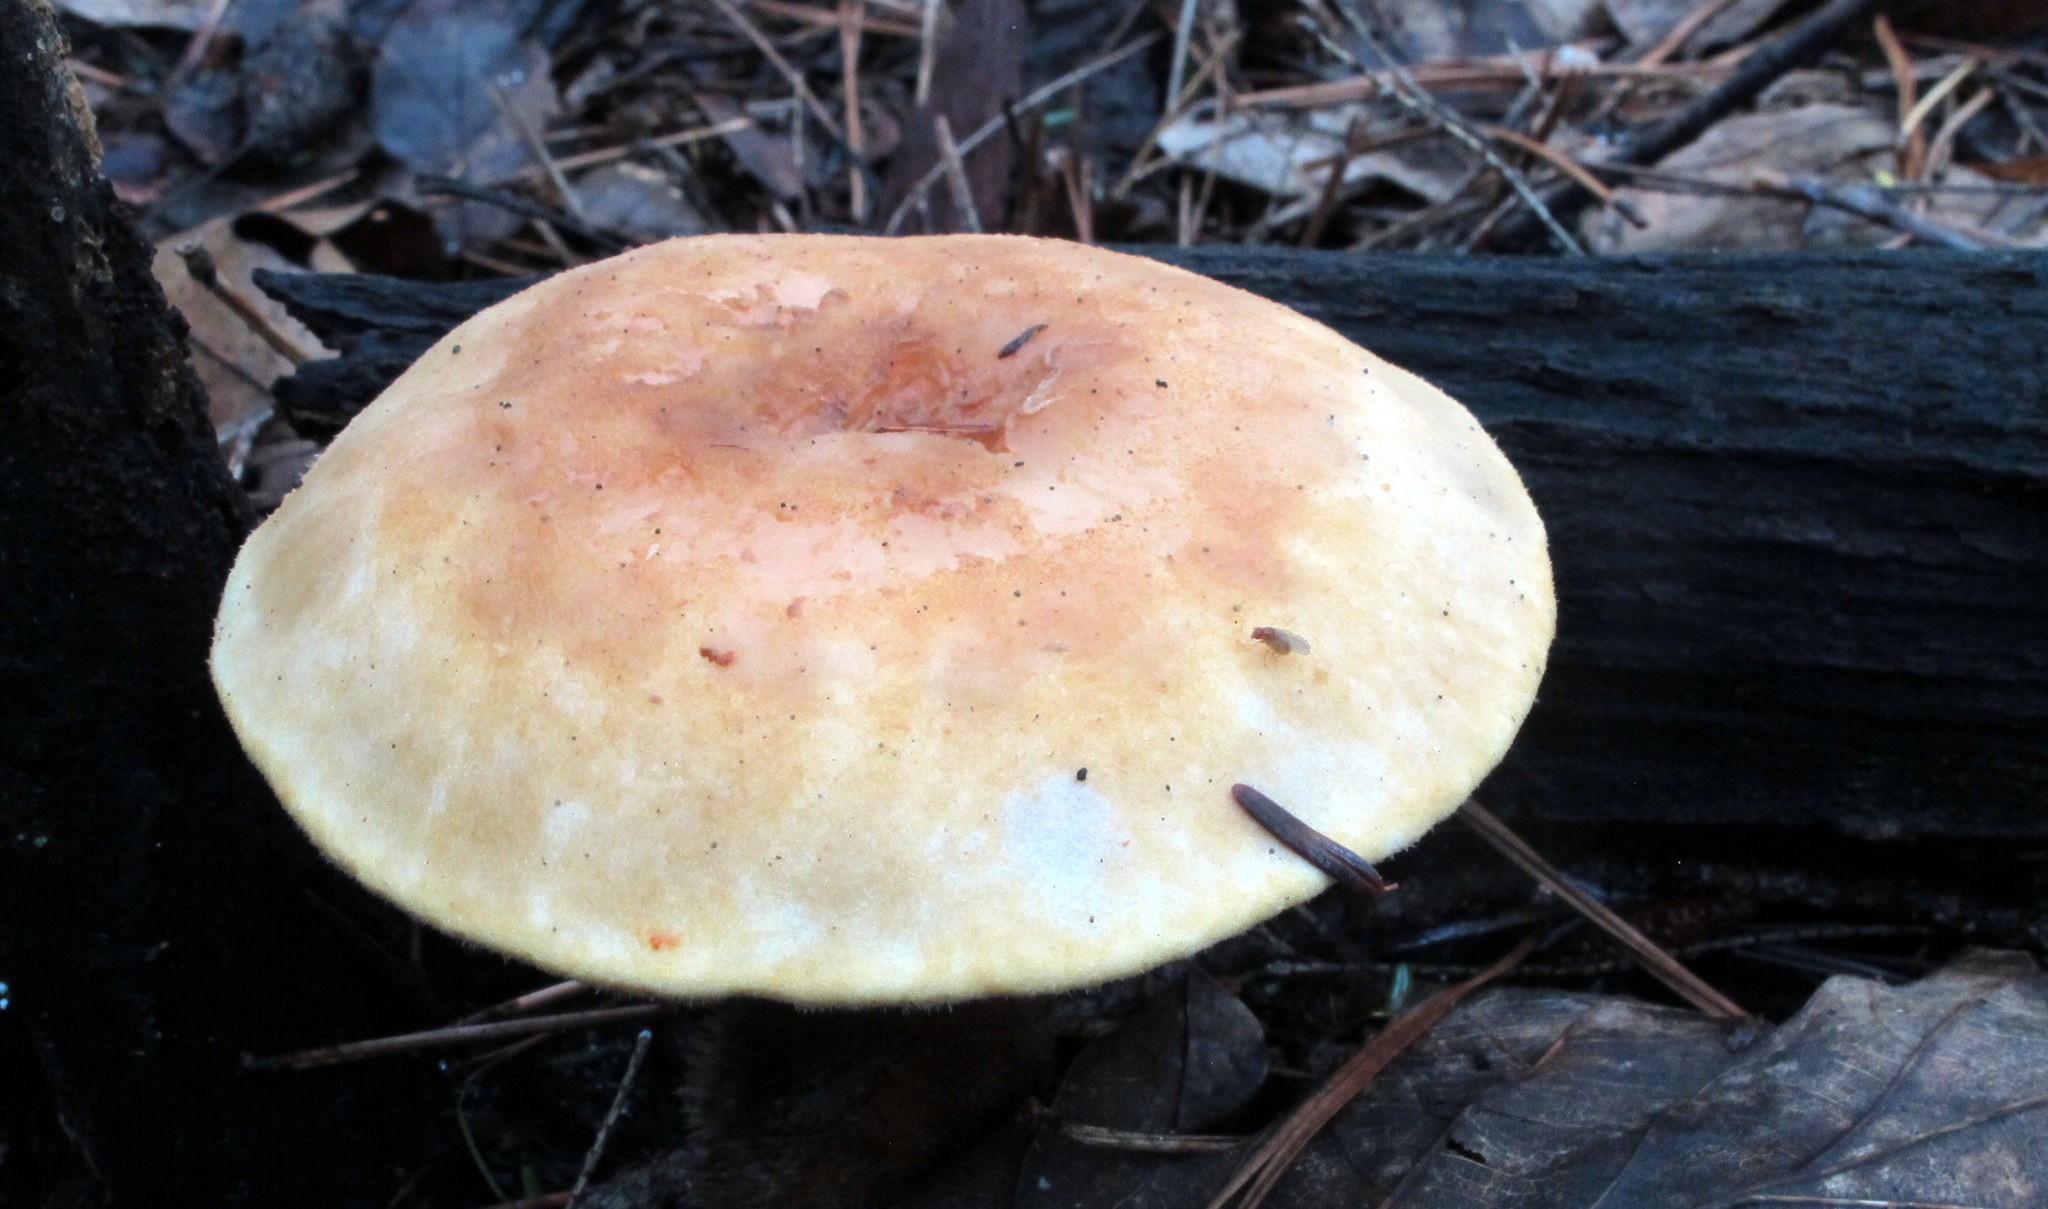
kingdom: Fungi
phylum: Basidiomycota
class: Agaricomycetes
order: Boletales
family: Tapinellaceae
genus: Tapinella
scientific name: Tapinella atrotomentosa
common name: Velvet rollrim
